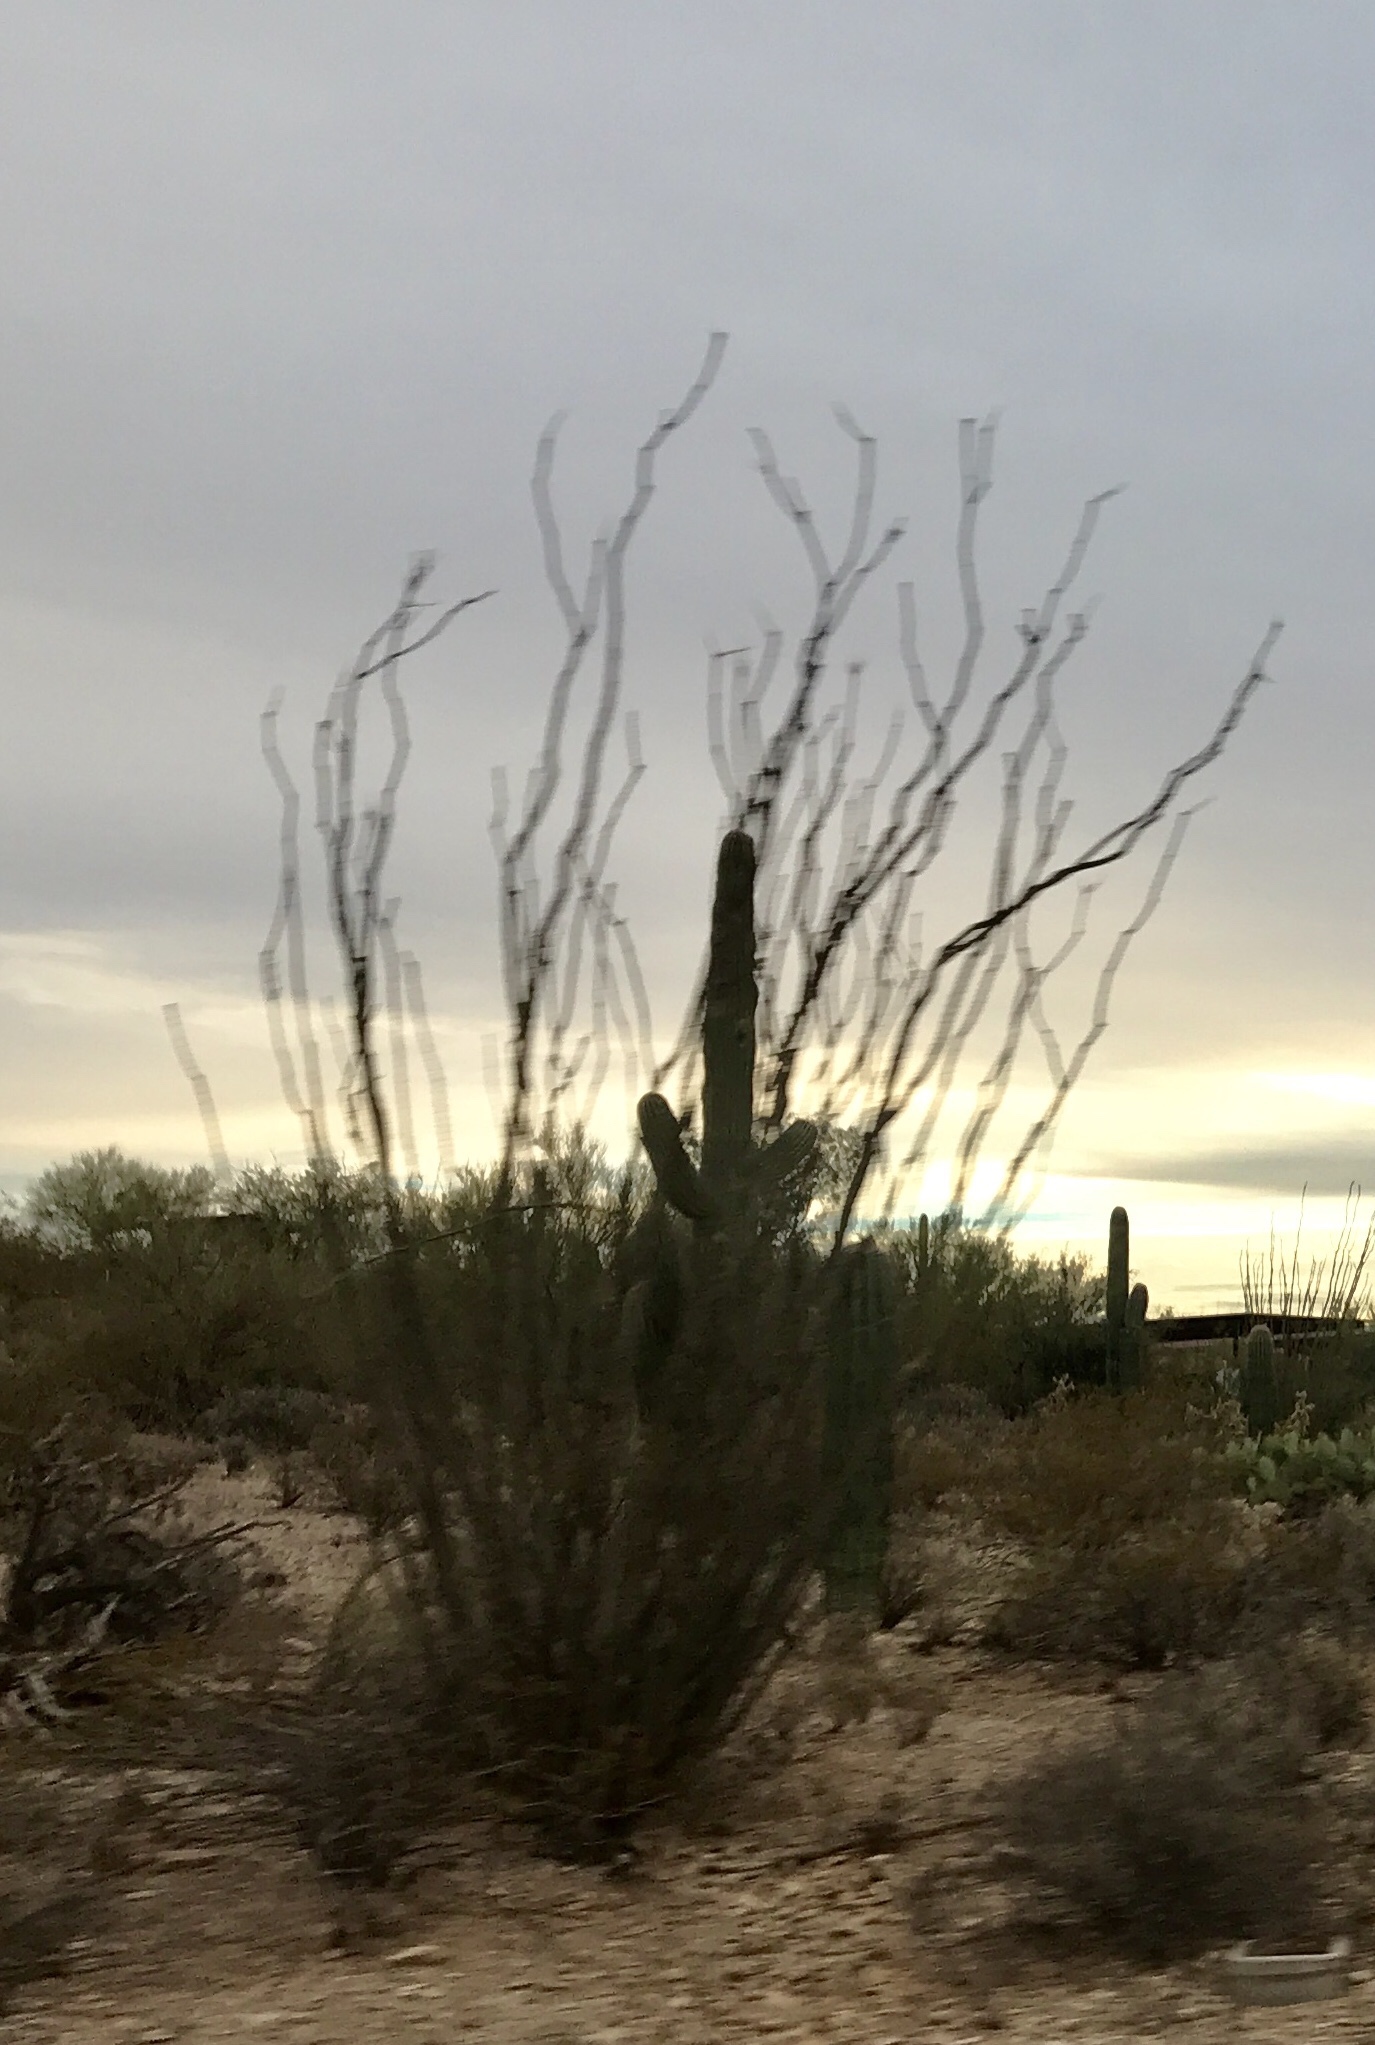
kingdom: Plantae
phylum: Tracheophyta
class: Magnoliopsida
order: Ericales
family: Fouquieriaceae
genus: Fouquieria
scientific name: Fouquieria splendens
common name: Vine-cactus
